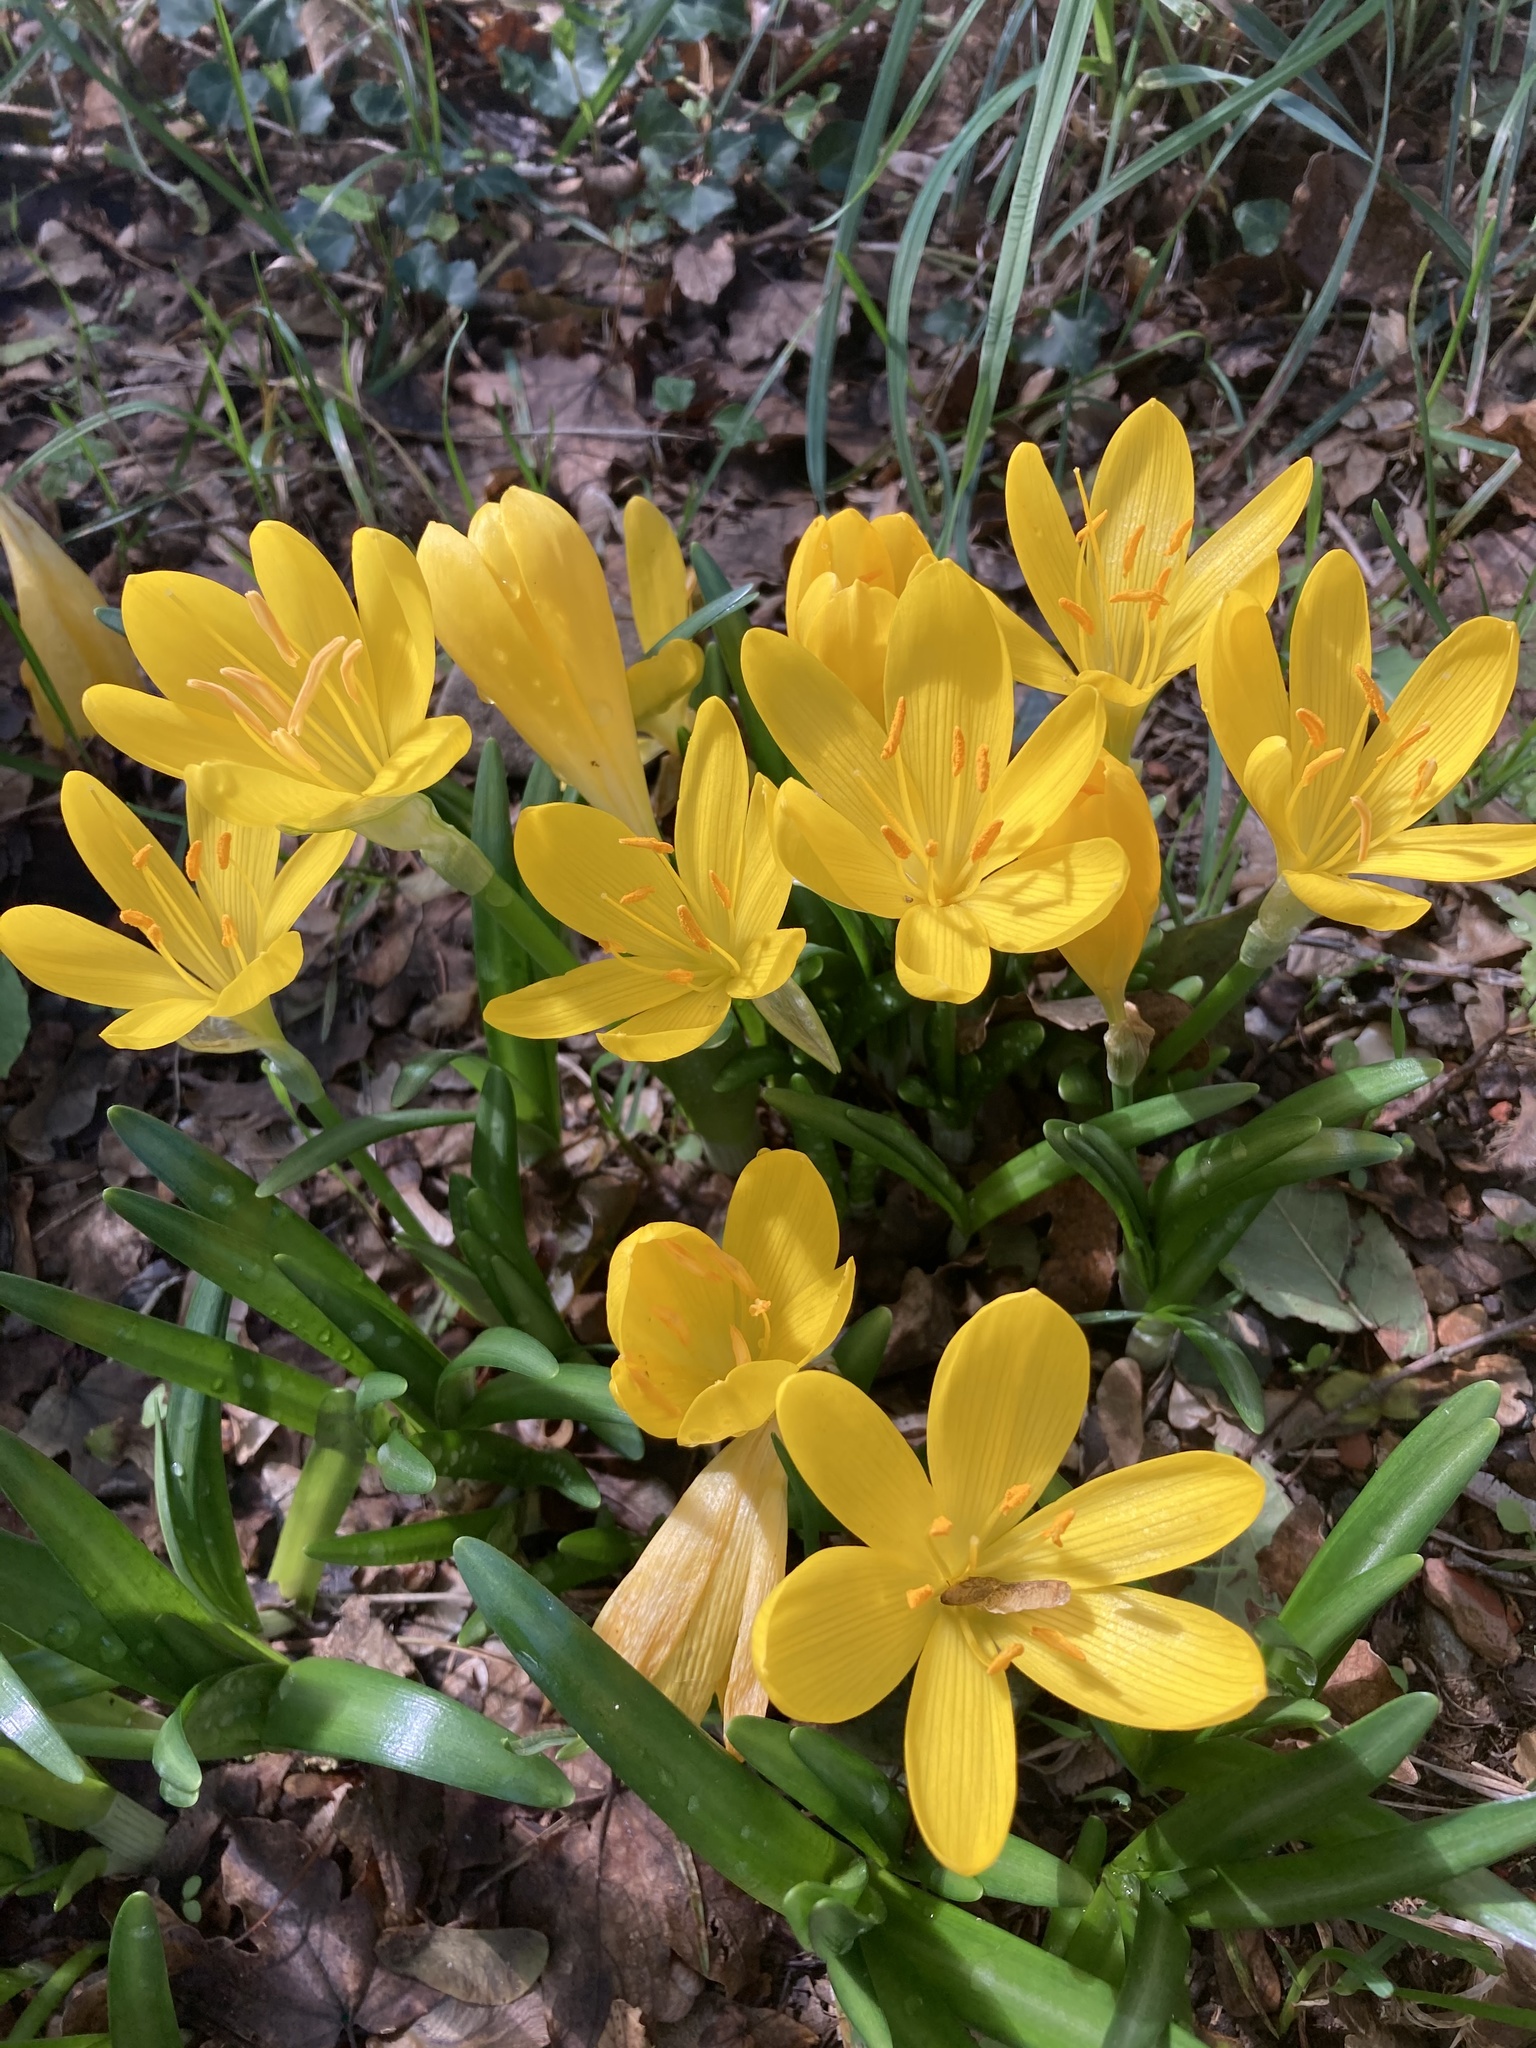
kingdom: Plantae
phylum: Tracheophyta
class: Liliopsida
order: Asparagales
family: Amaryllidaceae
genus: Sternbergia
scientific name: Sternbergia lutea
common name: Winter daffodil
